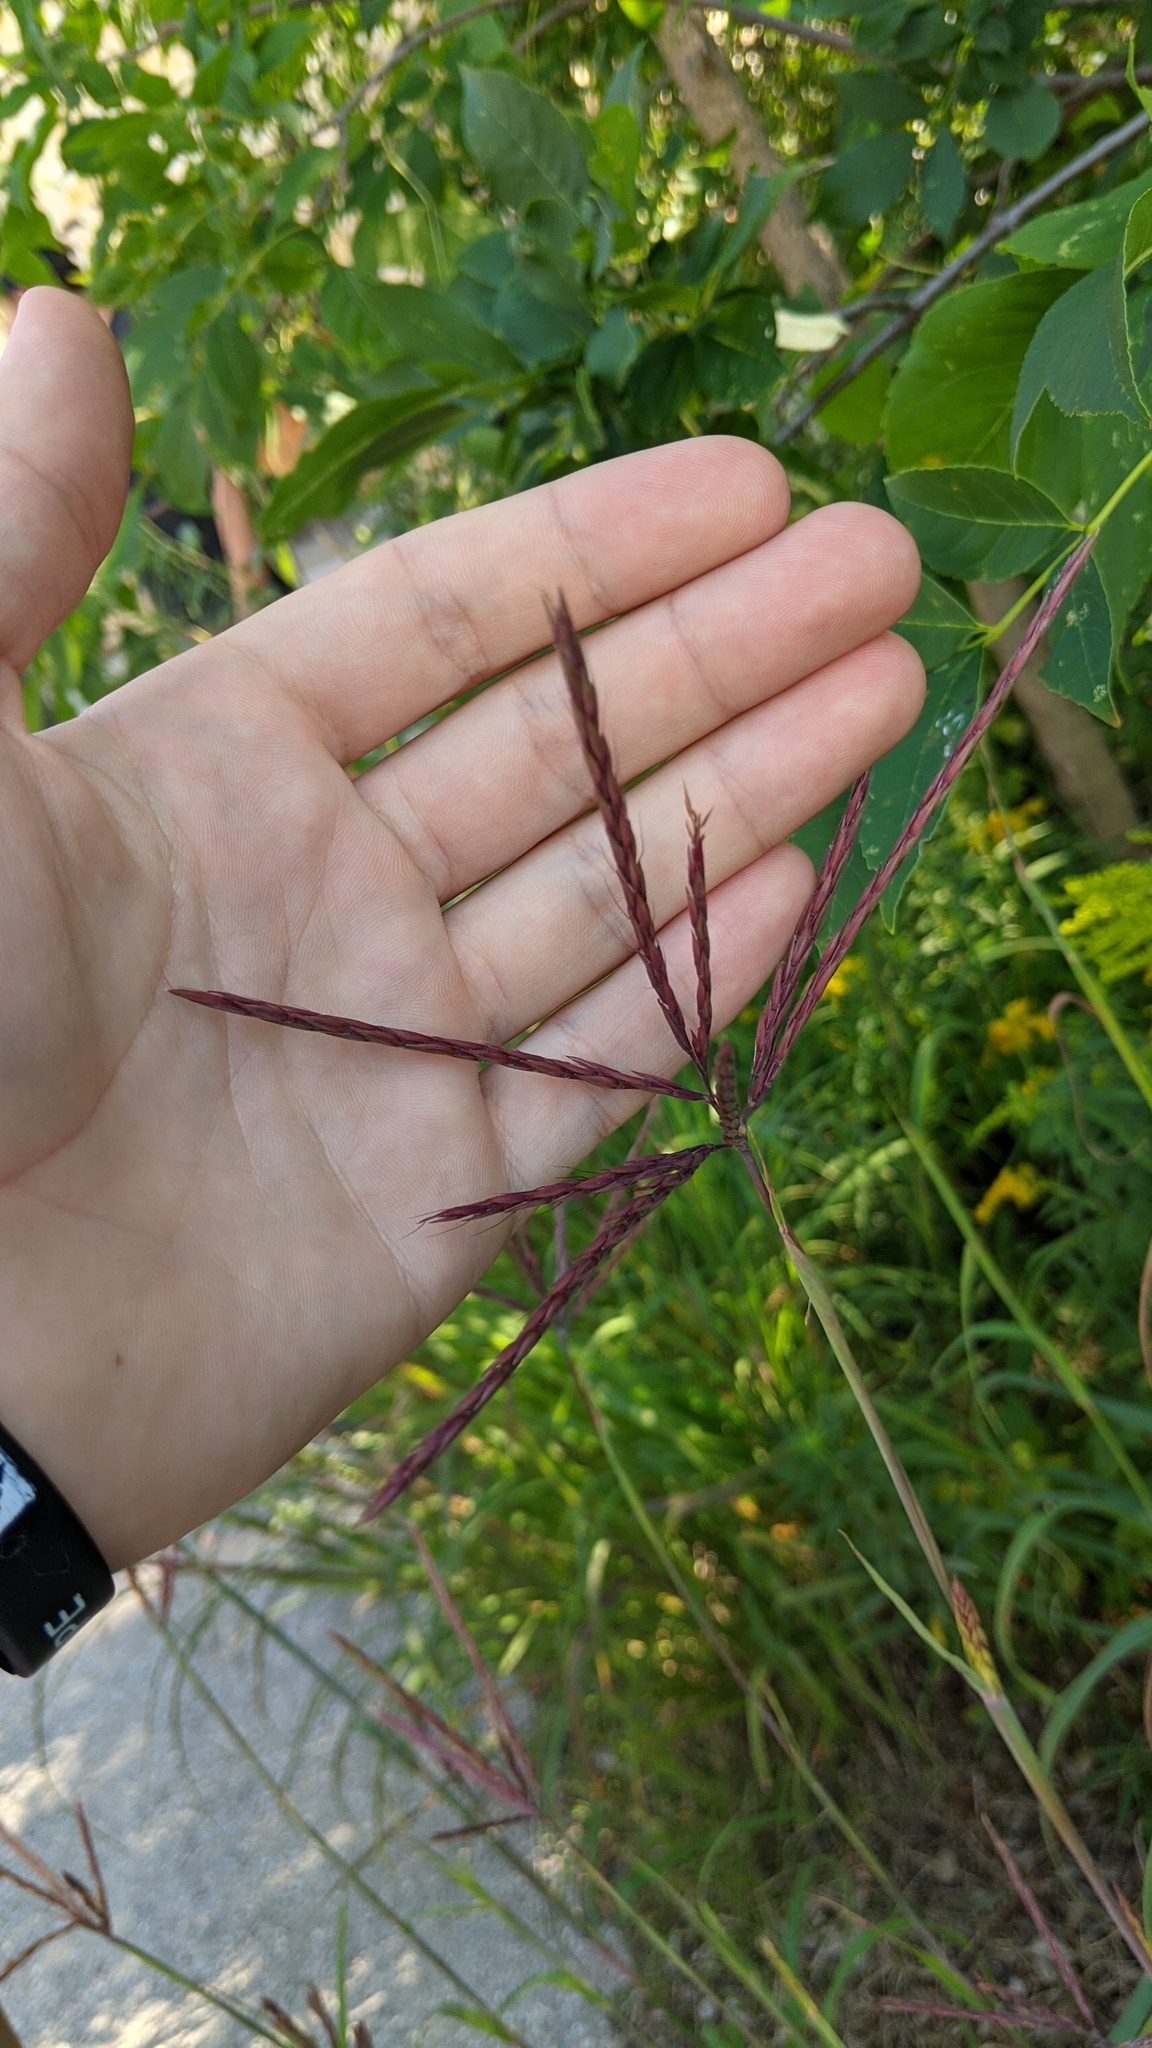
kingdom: Plantae
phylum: Tracheophyta
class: Liliopsida
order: Poales
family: Poaceae
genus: Andropogon
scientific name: Andropogon gerardi
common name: Big bluestem
